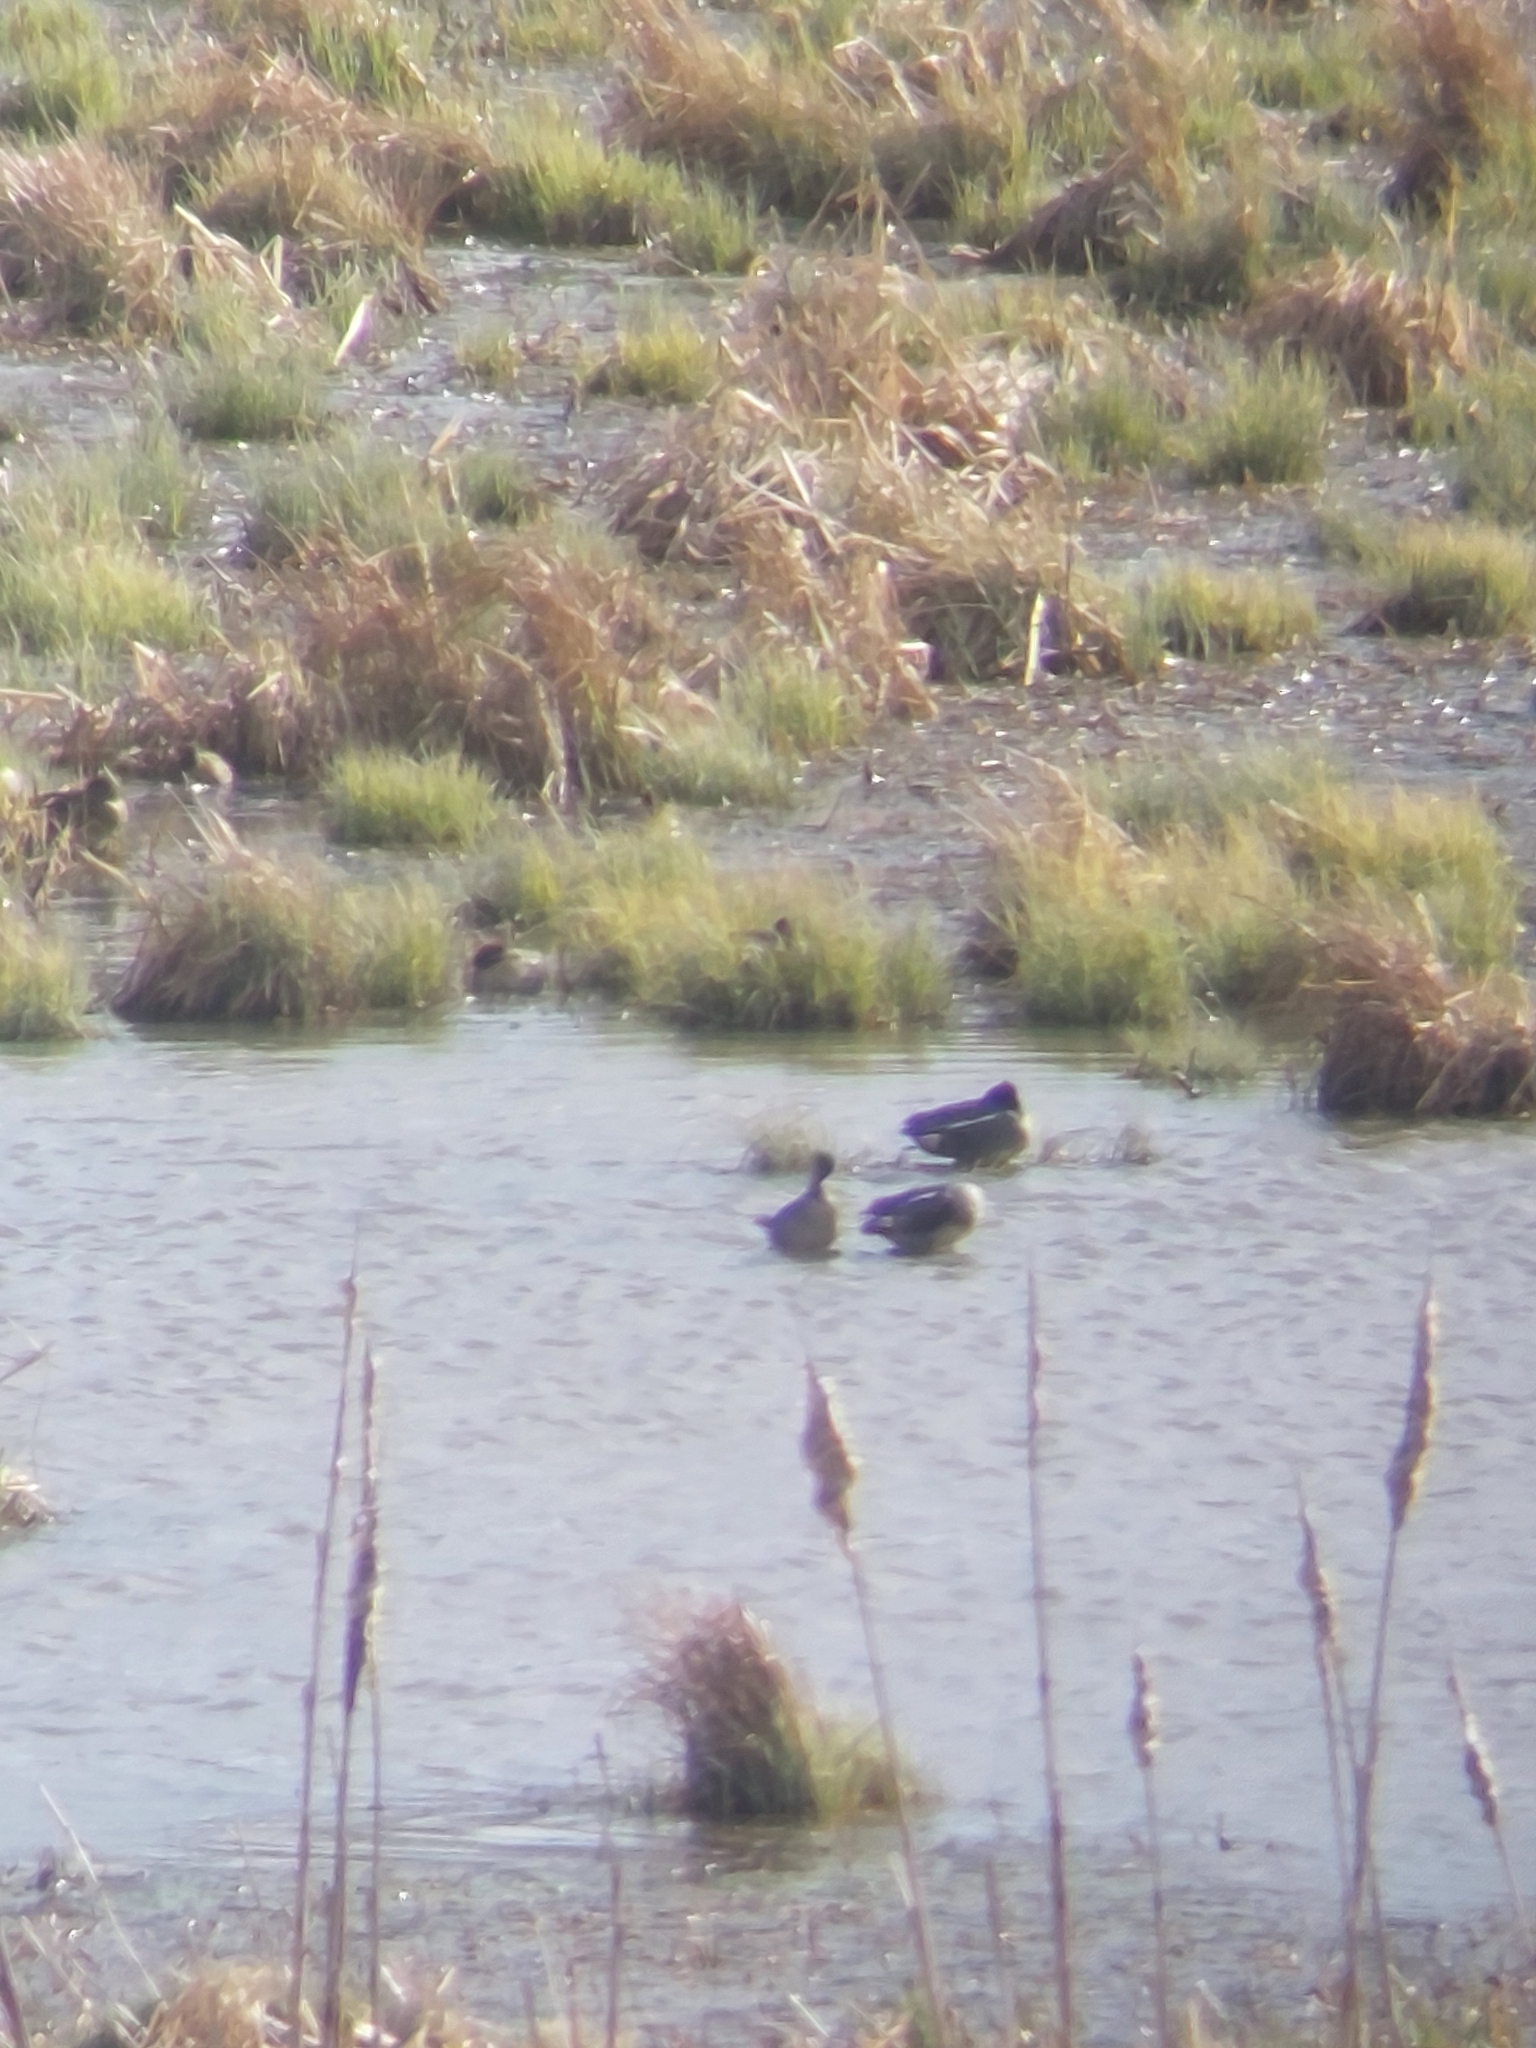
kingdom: Animalia
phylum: Chordata
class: Aves
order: Anseriformes
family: Anatidae
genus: Anas
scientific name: Anas crecca
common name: Eurasian teal
